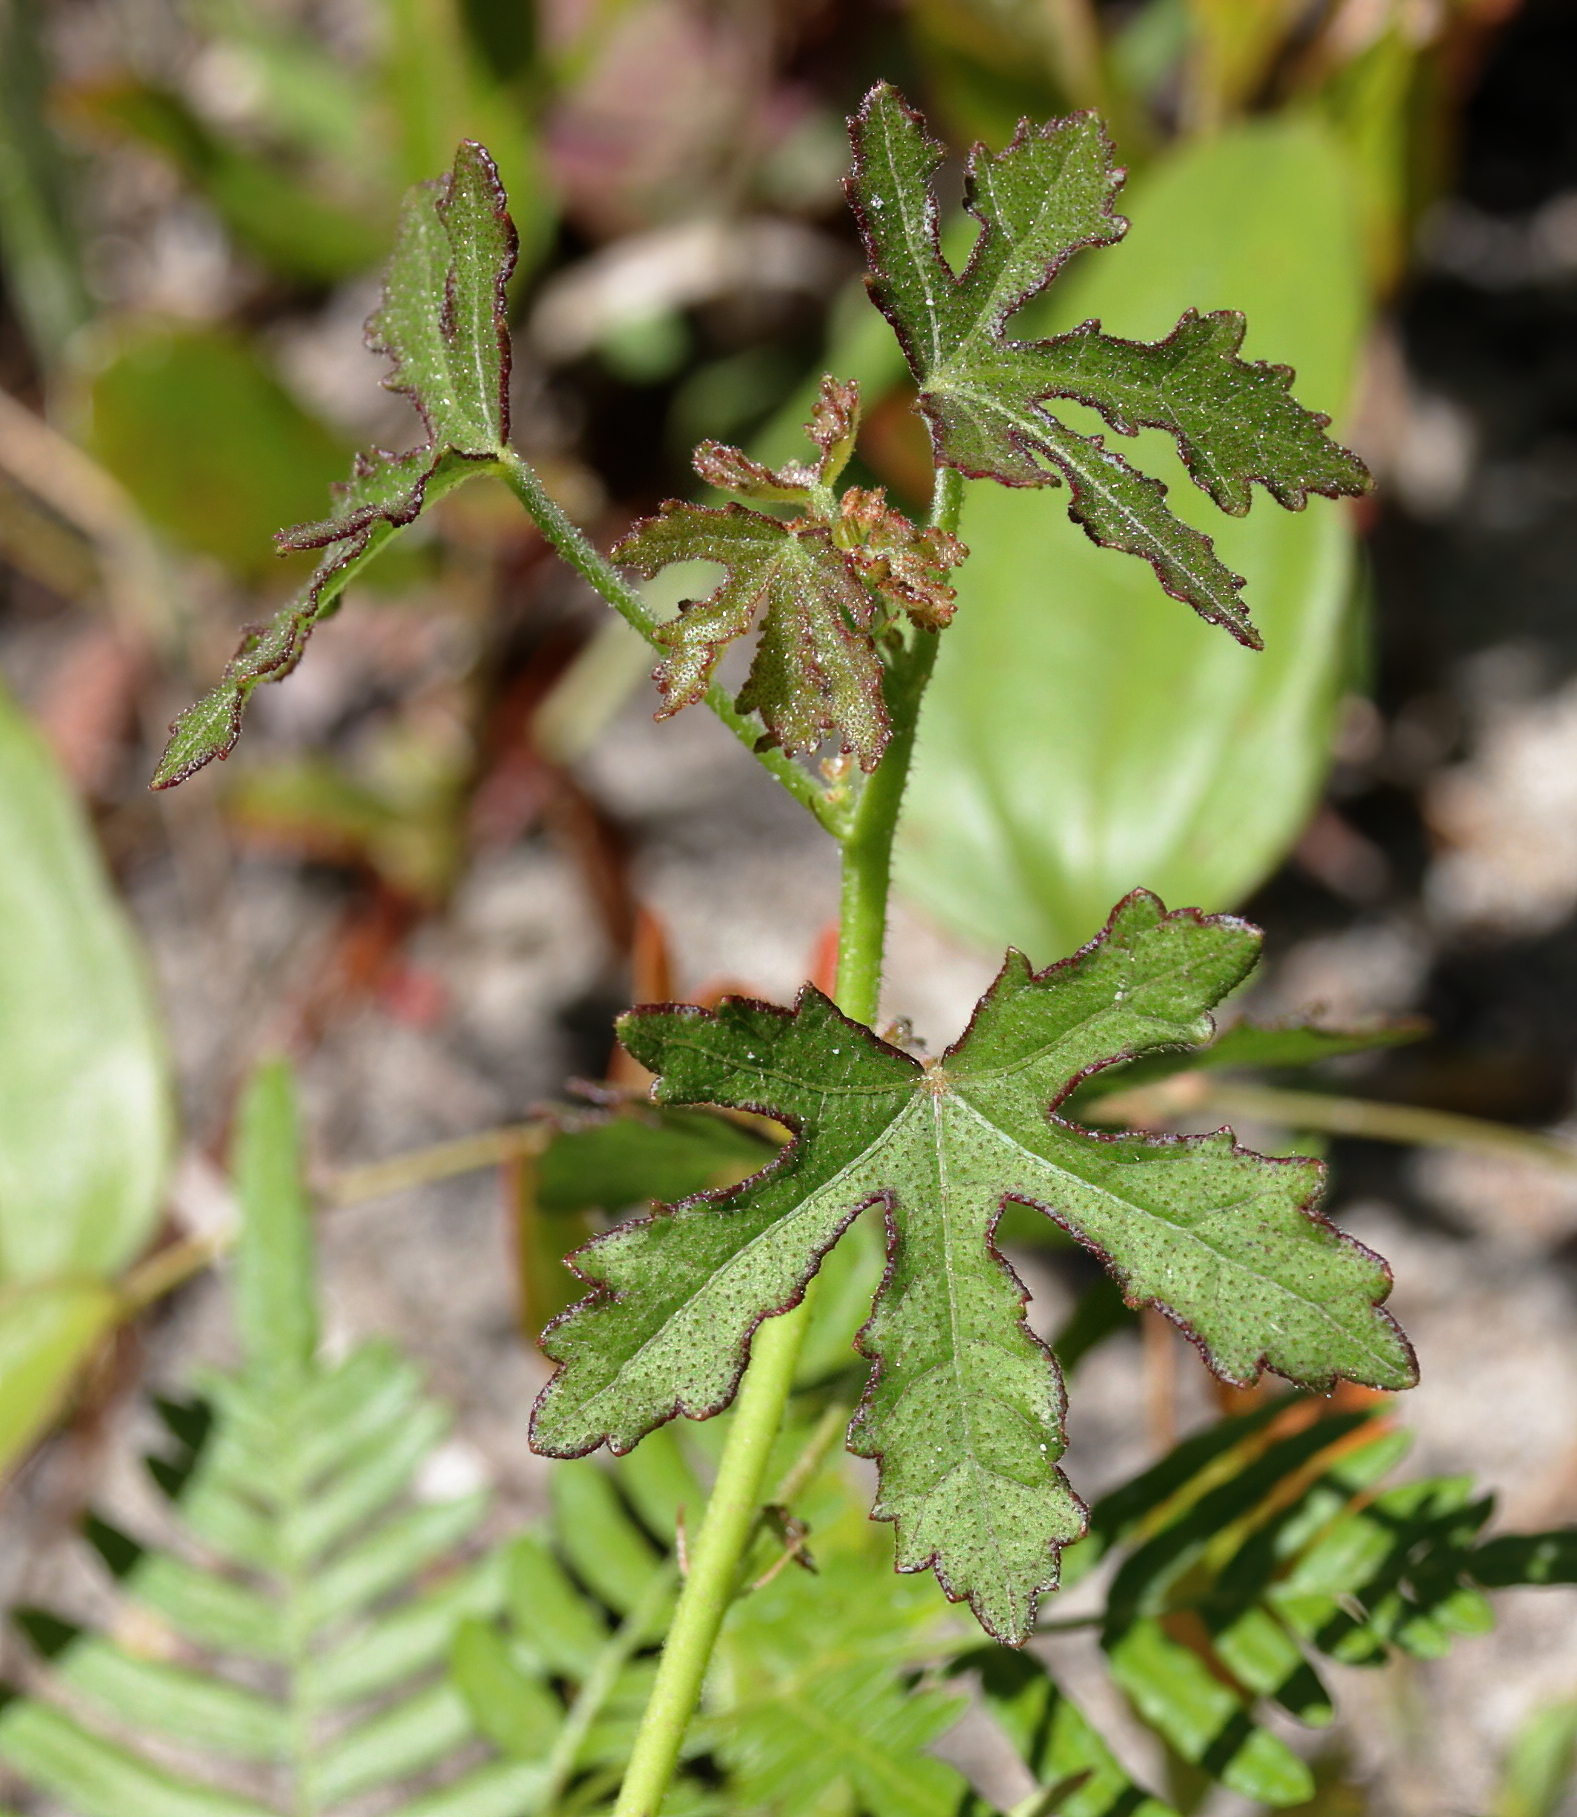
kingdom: Plantae
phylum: Tracheophyta
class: Magnoliopsida
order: Malvales
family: Malvaceae
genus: Hibiscus
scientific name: Hibiscus aculeatus
